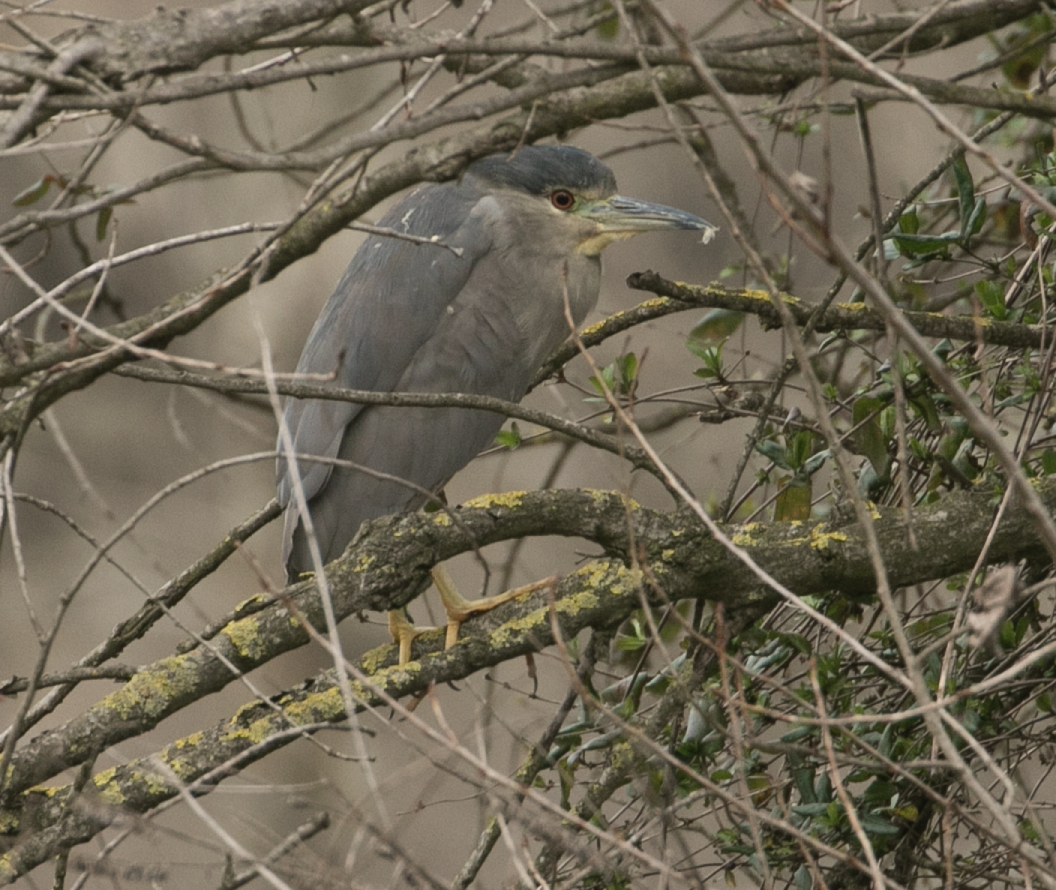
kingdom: Animalia
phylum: Chordata
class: Aves
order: Pelecaniformes
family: Ardeidae
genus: Nycticorax
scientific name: Nycticorax nycticorax
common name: Black-crowned night heron
